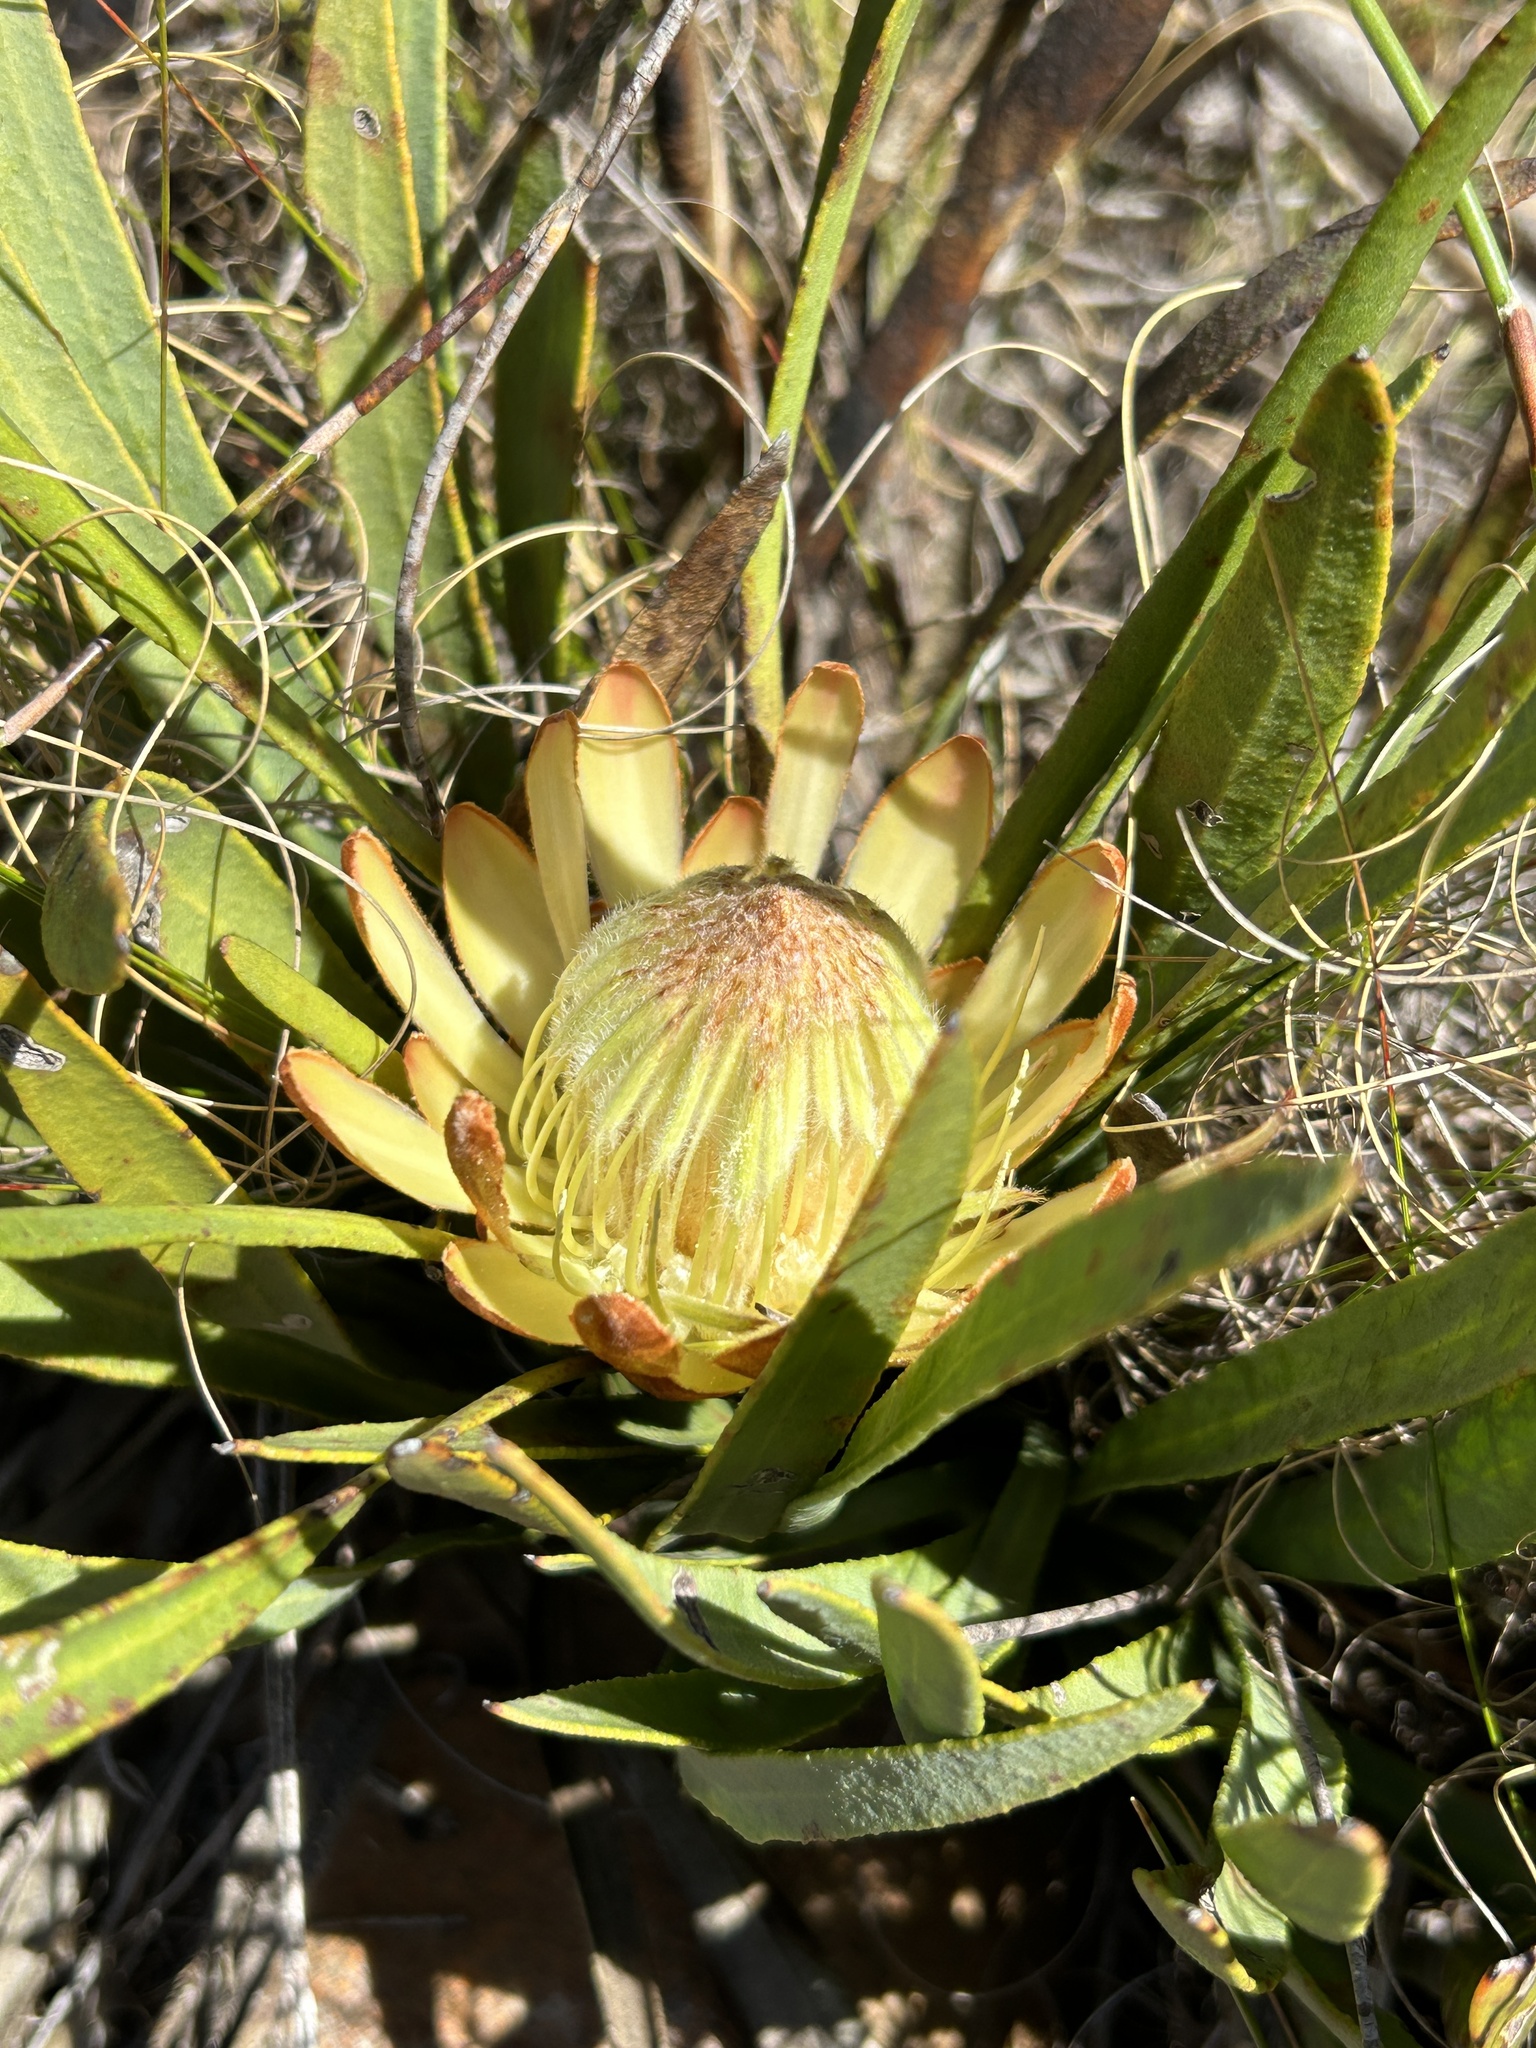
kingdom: Plantae
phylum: Tracheophyta
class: Magnoliopsida
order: Proteales
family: Proteaceae
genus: Protea
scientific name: Protea scabra
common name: Sandpaper-leaf sugarbush
